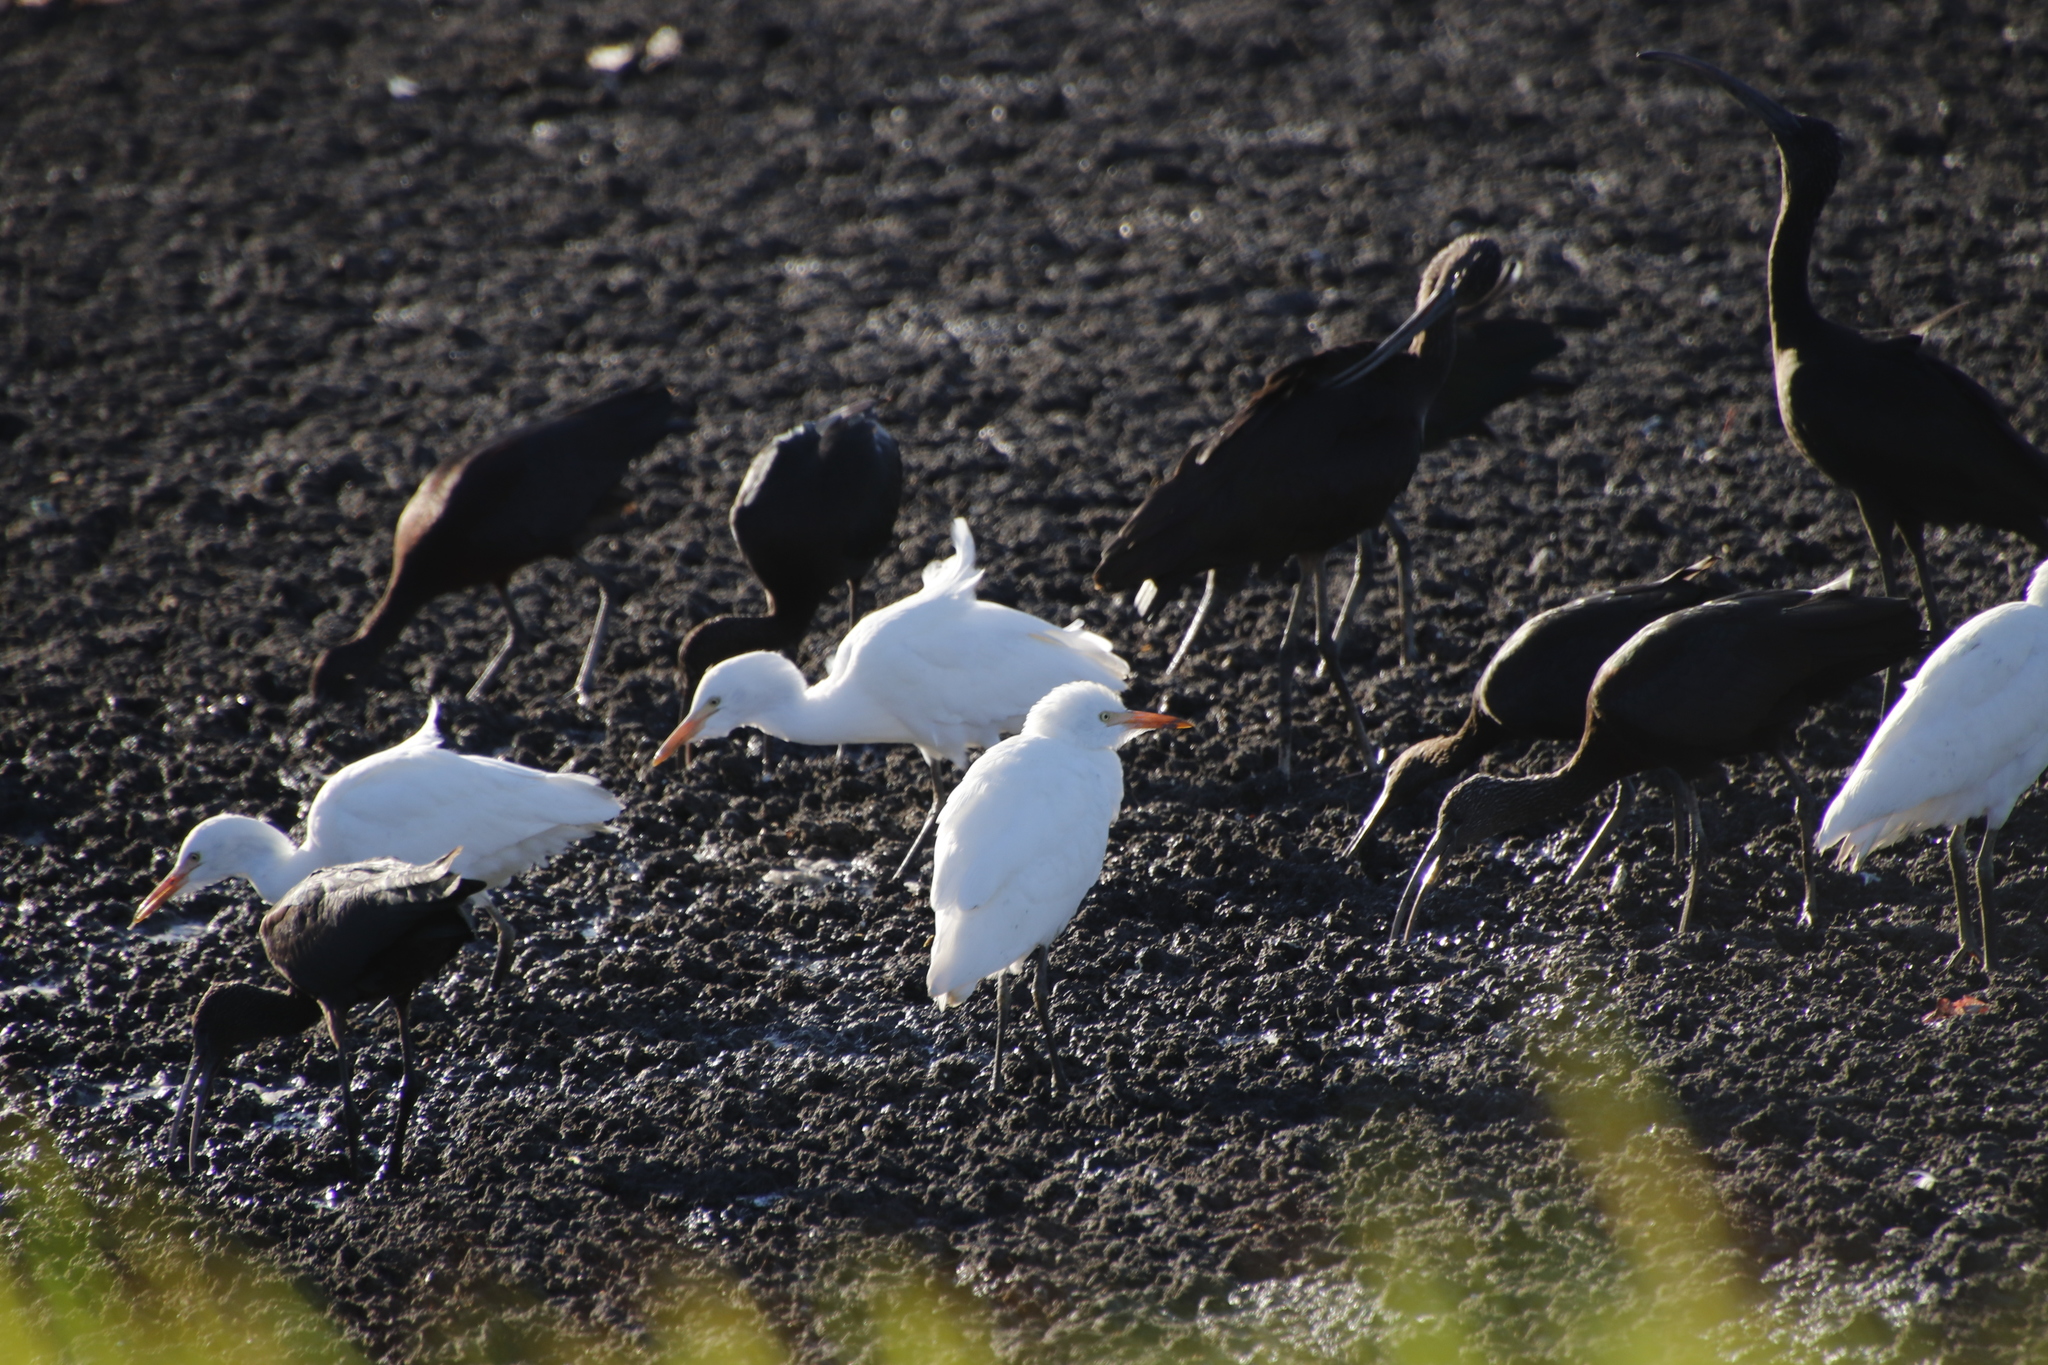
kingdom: Animalia
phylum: Chordata
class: Aves
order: Pelecaniformes
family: Ardeidae
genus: Bubulcus
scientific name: Bubulcus ibis
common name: Cattle egret
